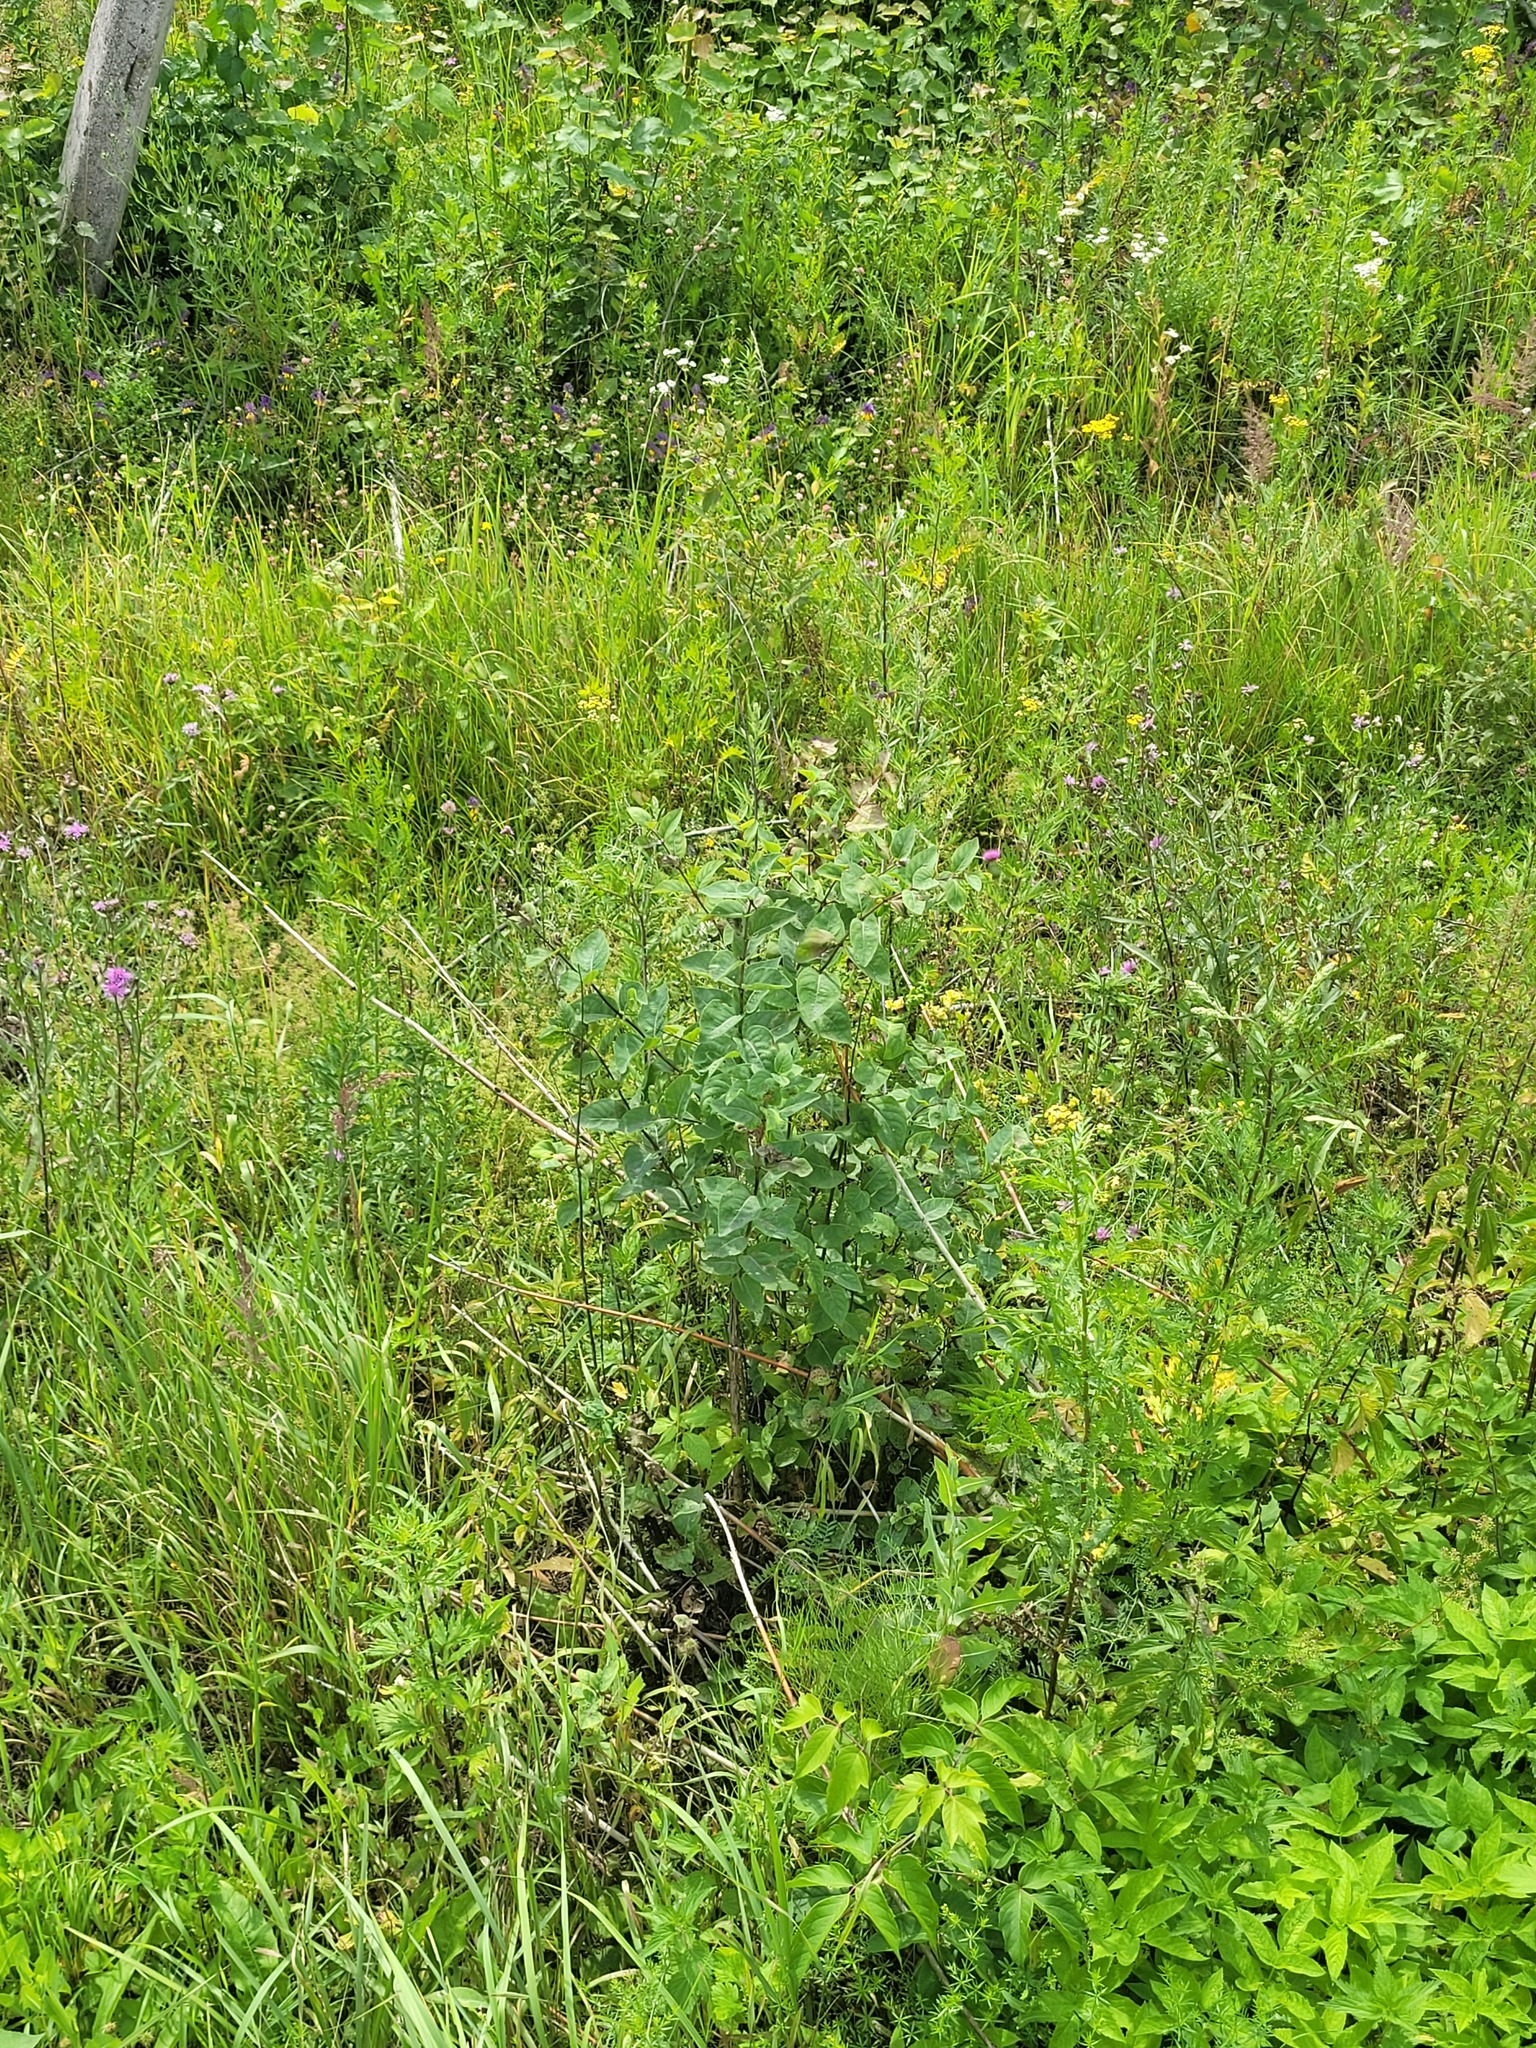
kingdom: Plantae
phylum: Tracheophyta
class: Magnoliopsida
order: Asterales
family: Asteraceae
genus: Lactuca
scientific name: Lactuca tatarica
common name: Blue lettuce
